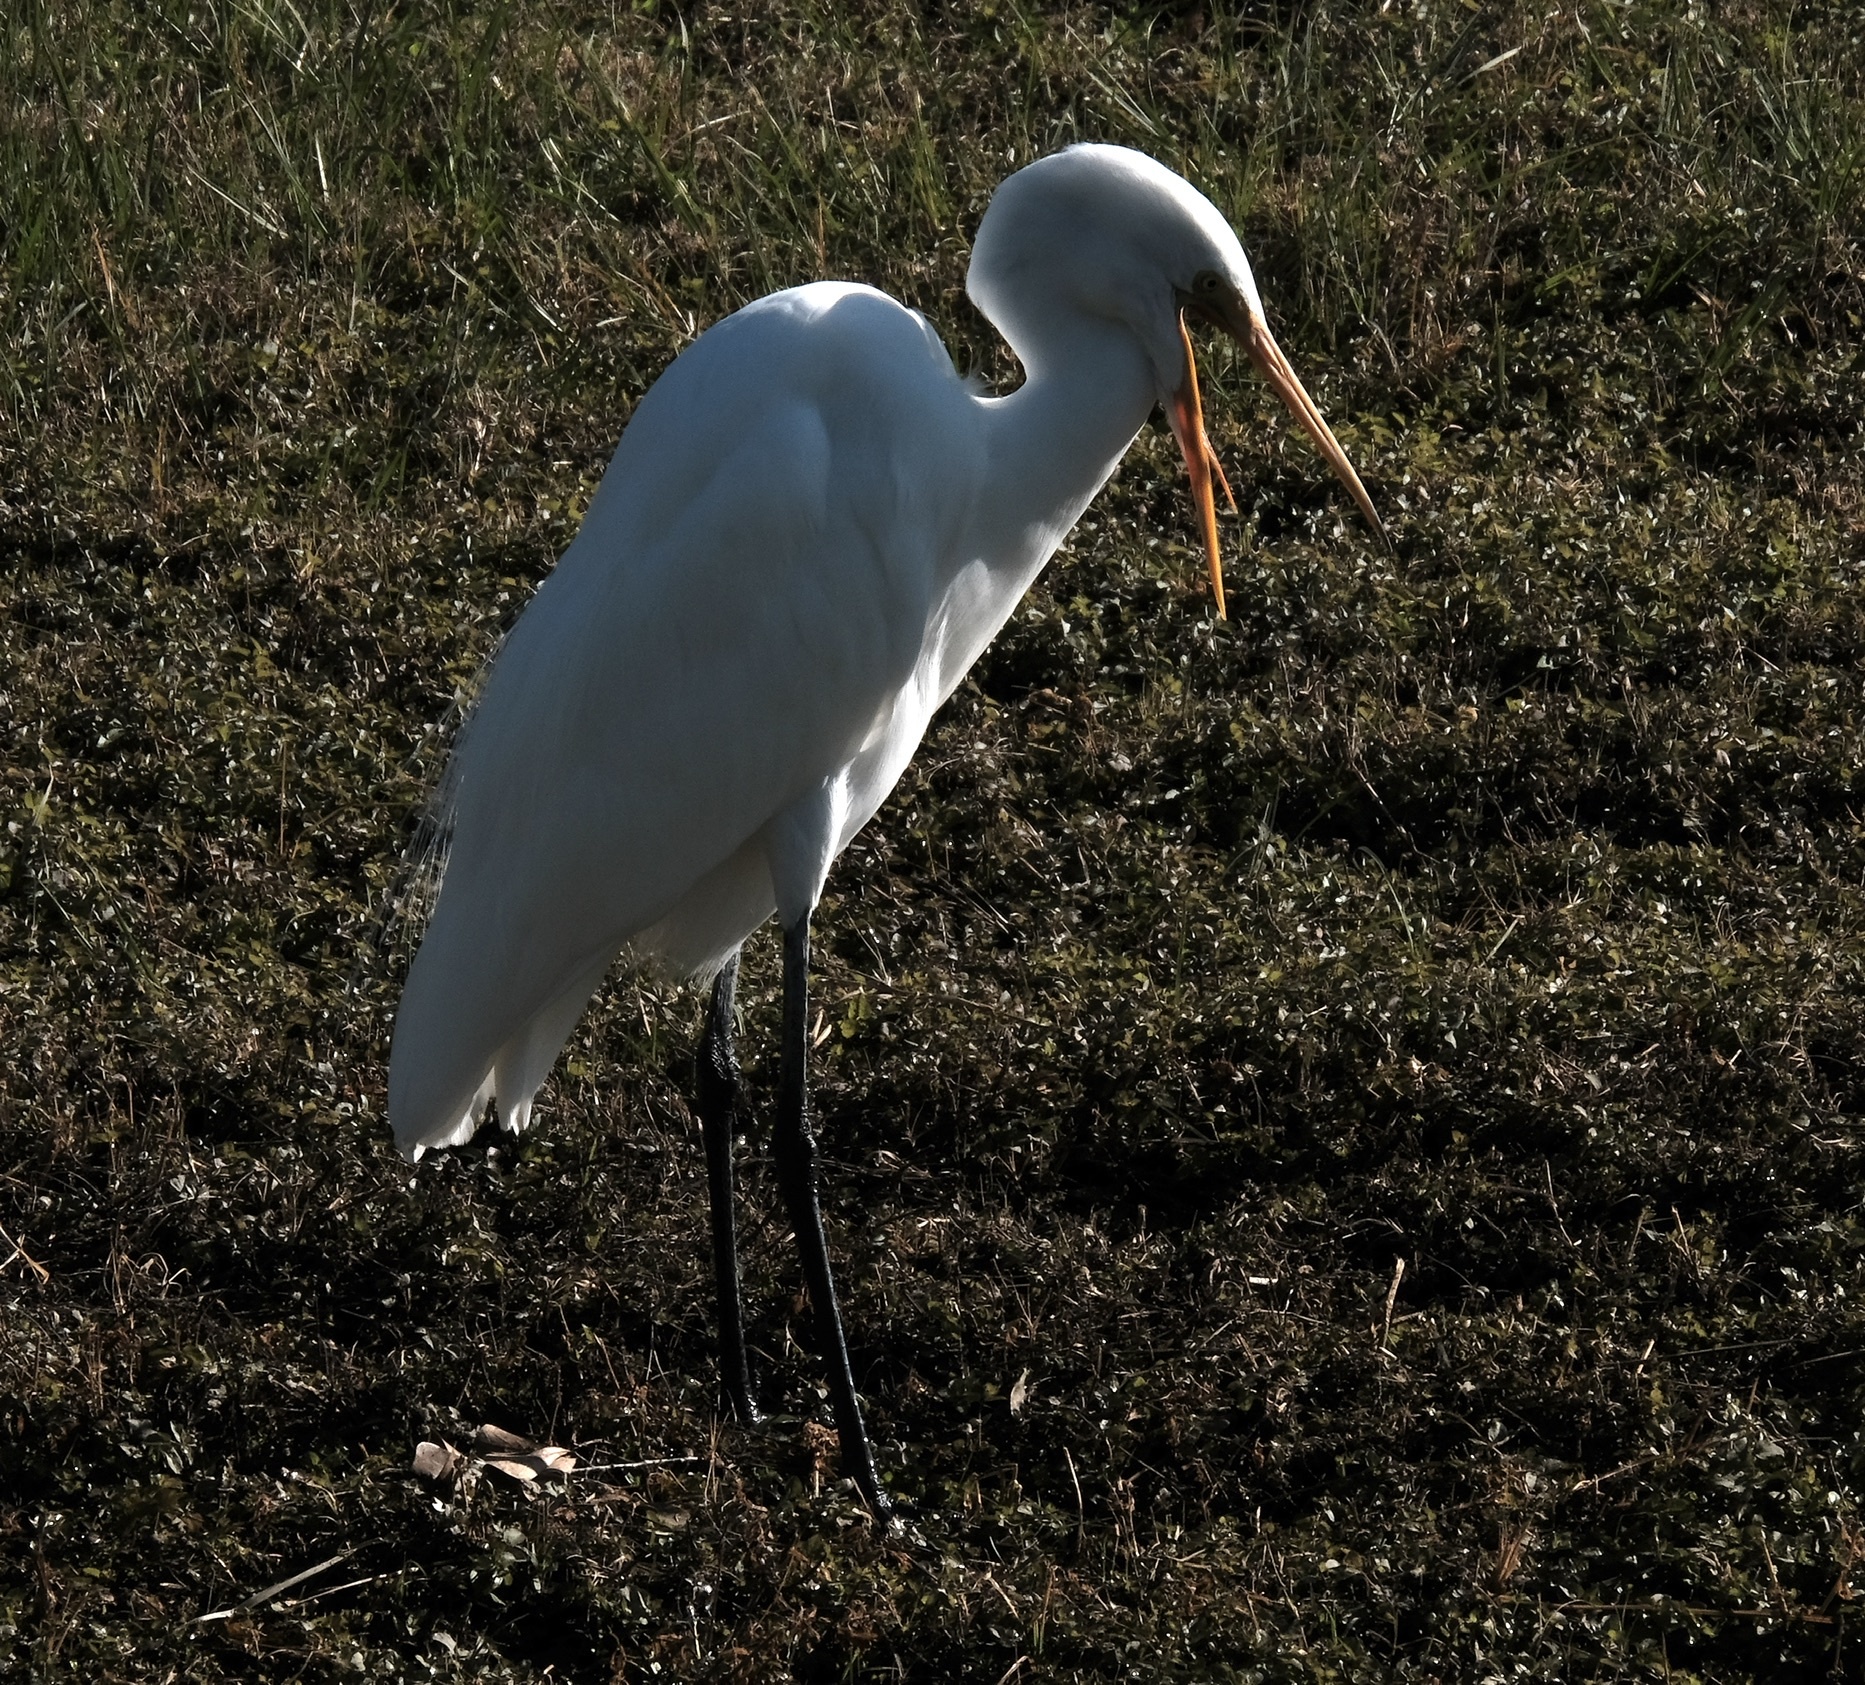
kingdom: Animalia
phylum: Chordata
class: Aves
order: Pelecaniformes
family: Ardeidae
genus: Ardea
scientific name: Ardea alba
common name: Great egret
